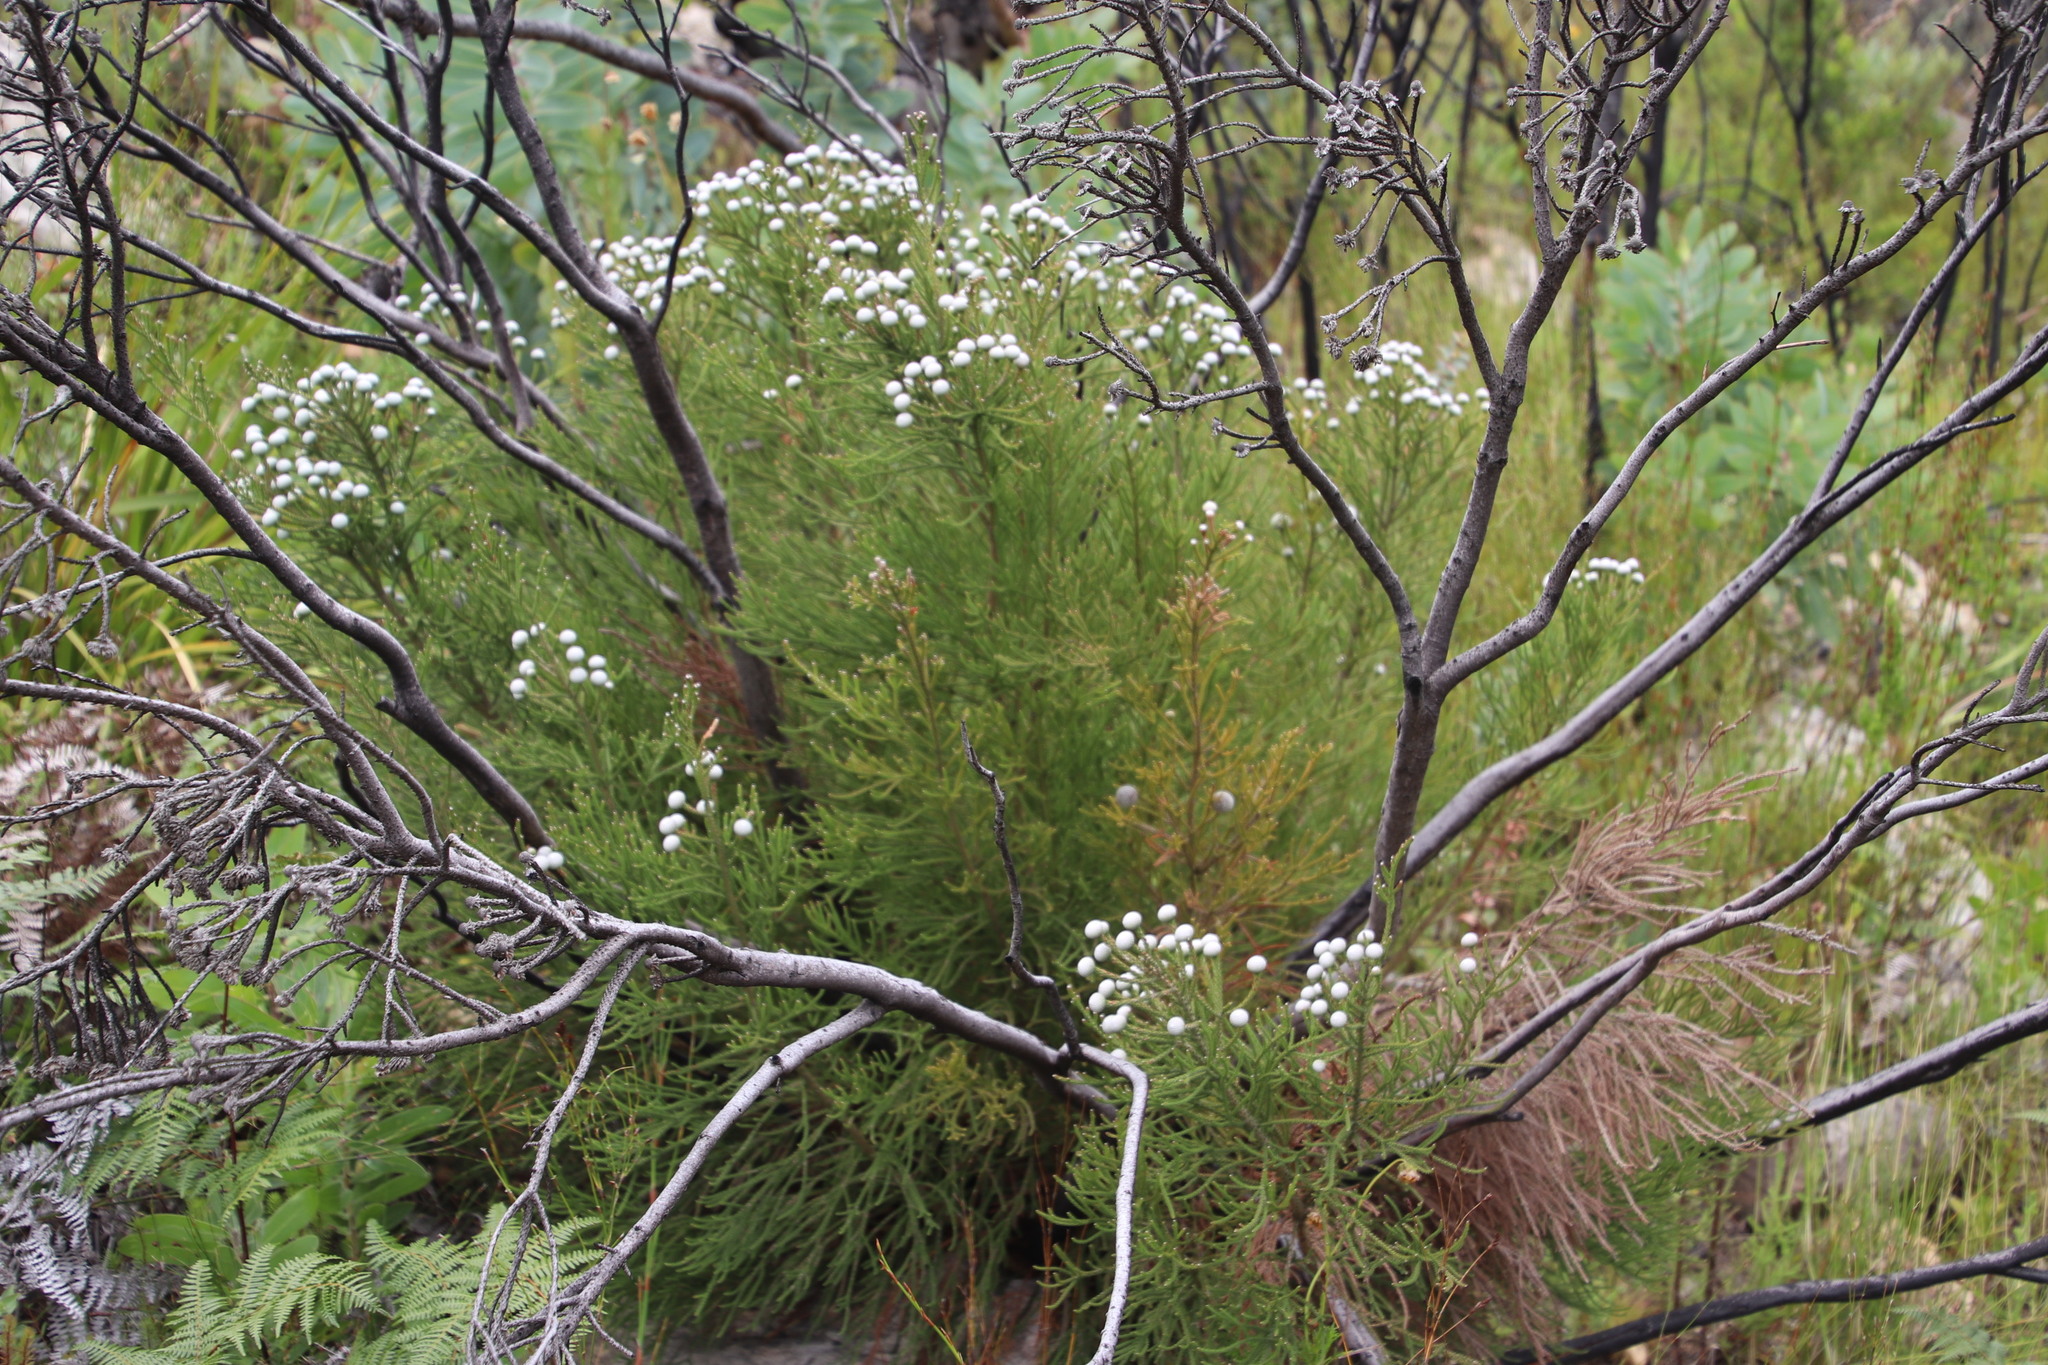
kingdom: Plantae
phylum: Tracheophyta
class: Magnoliopsida
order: Bruniales
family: Bruniaceae
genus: Brunia
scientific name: Brunia noduliflora
